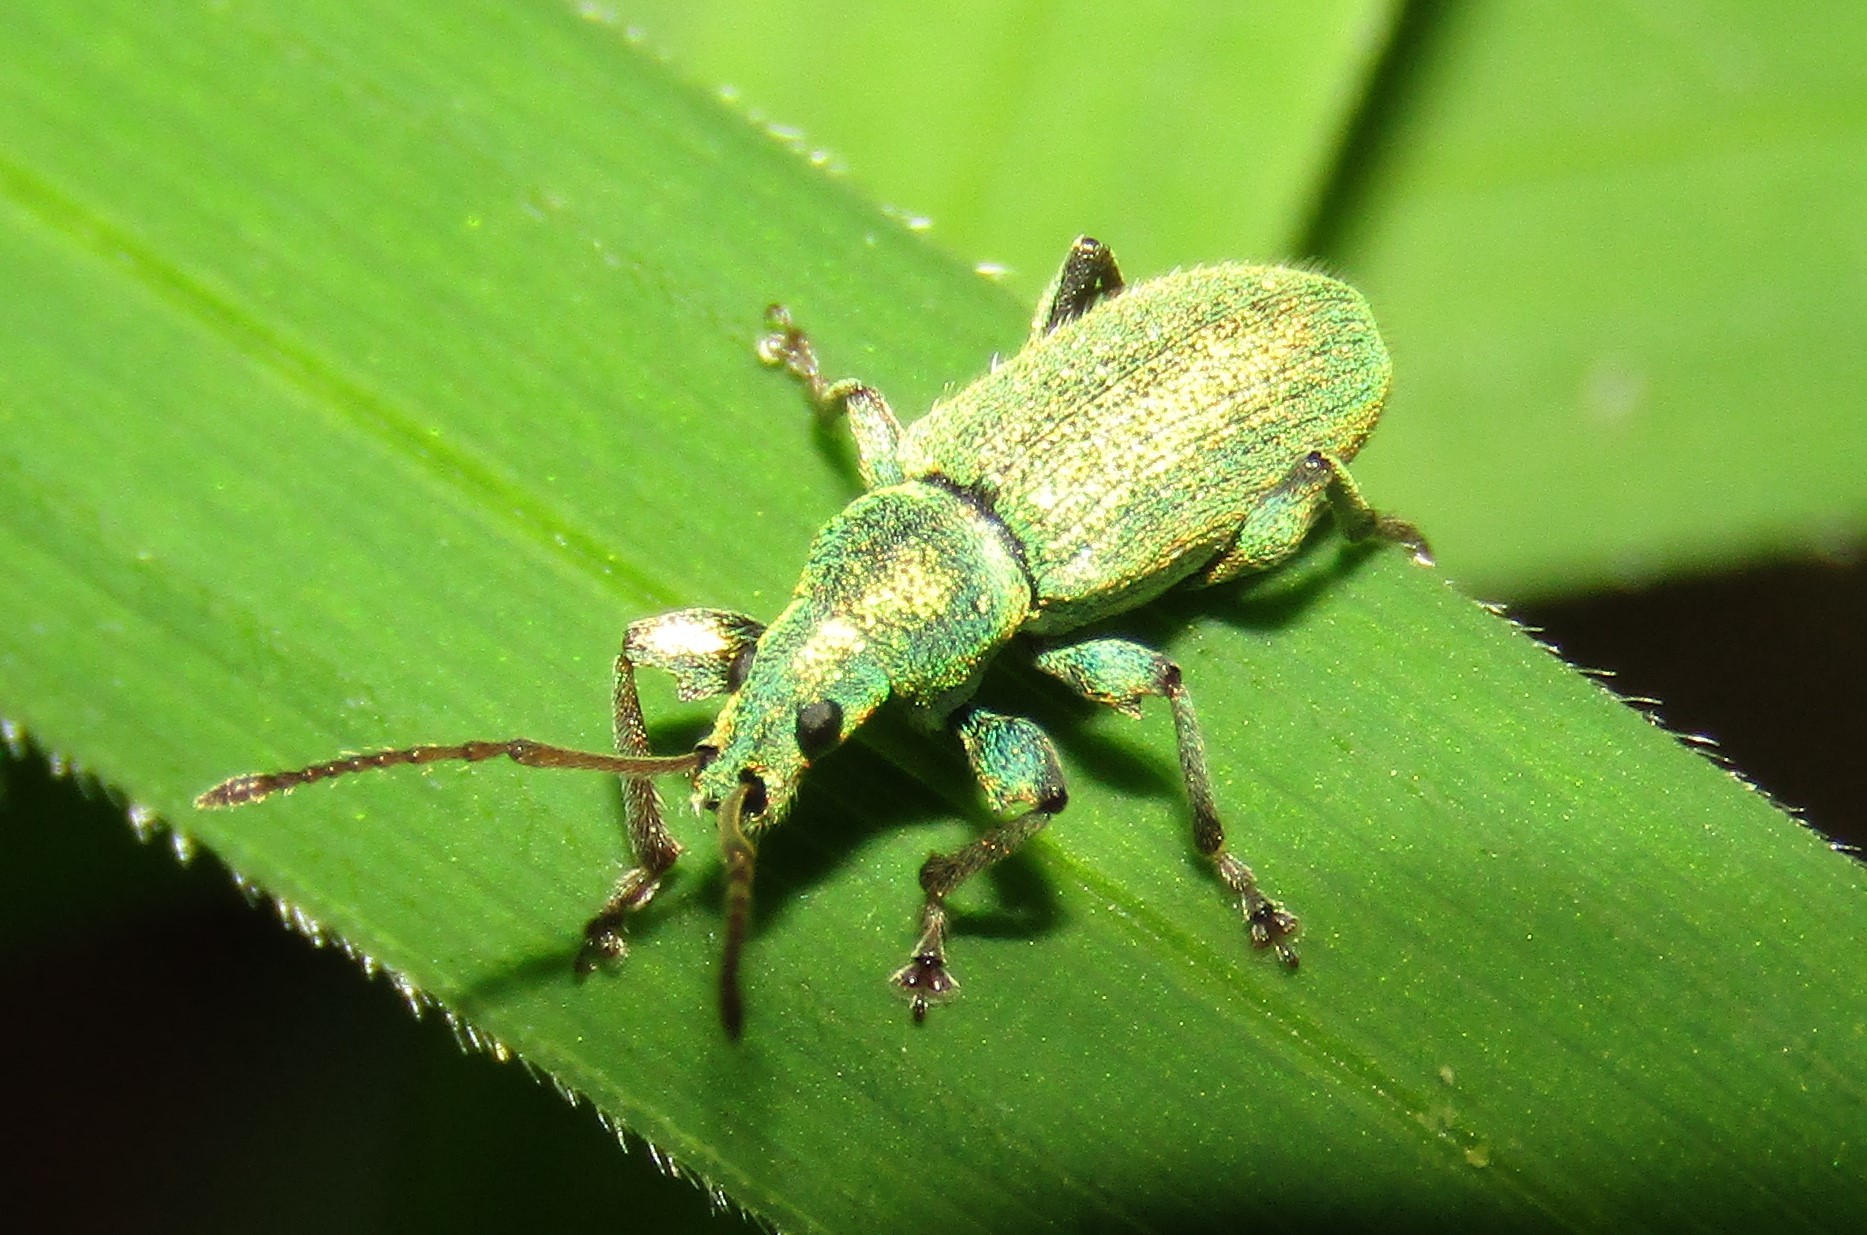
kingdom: Animalia
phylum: Arthropoda
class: Insecta
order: Coleoptera
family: Curculionidae
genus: Phyllobius
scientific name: Phyllobius argentatus
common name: Silver-green leaf weevil
